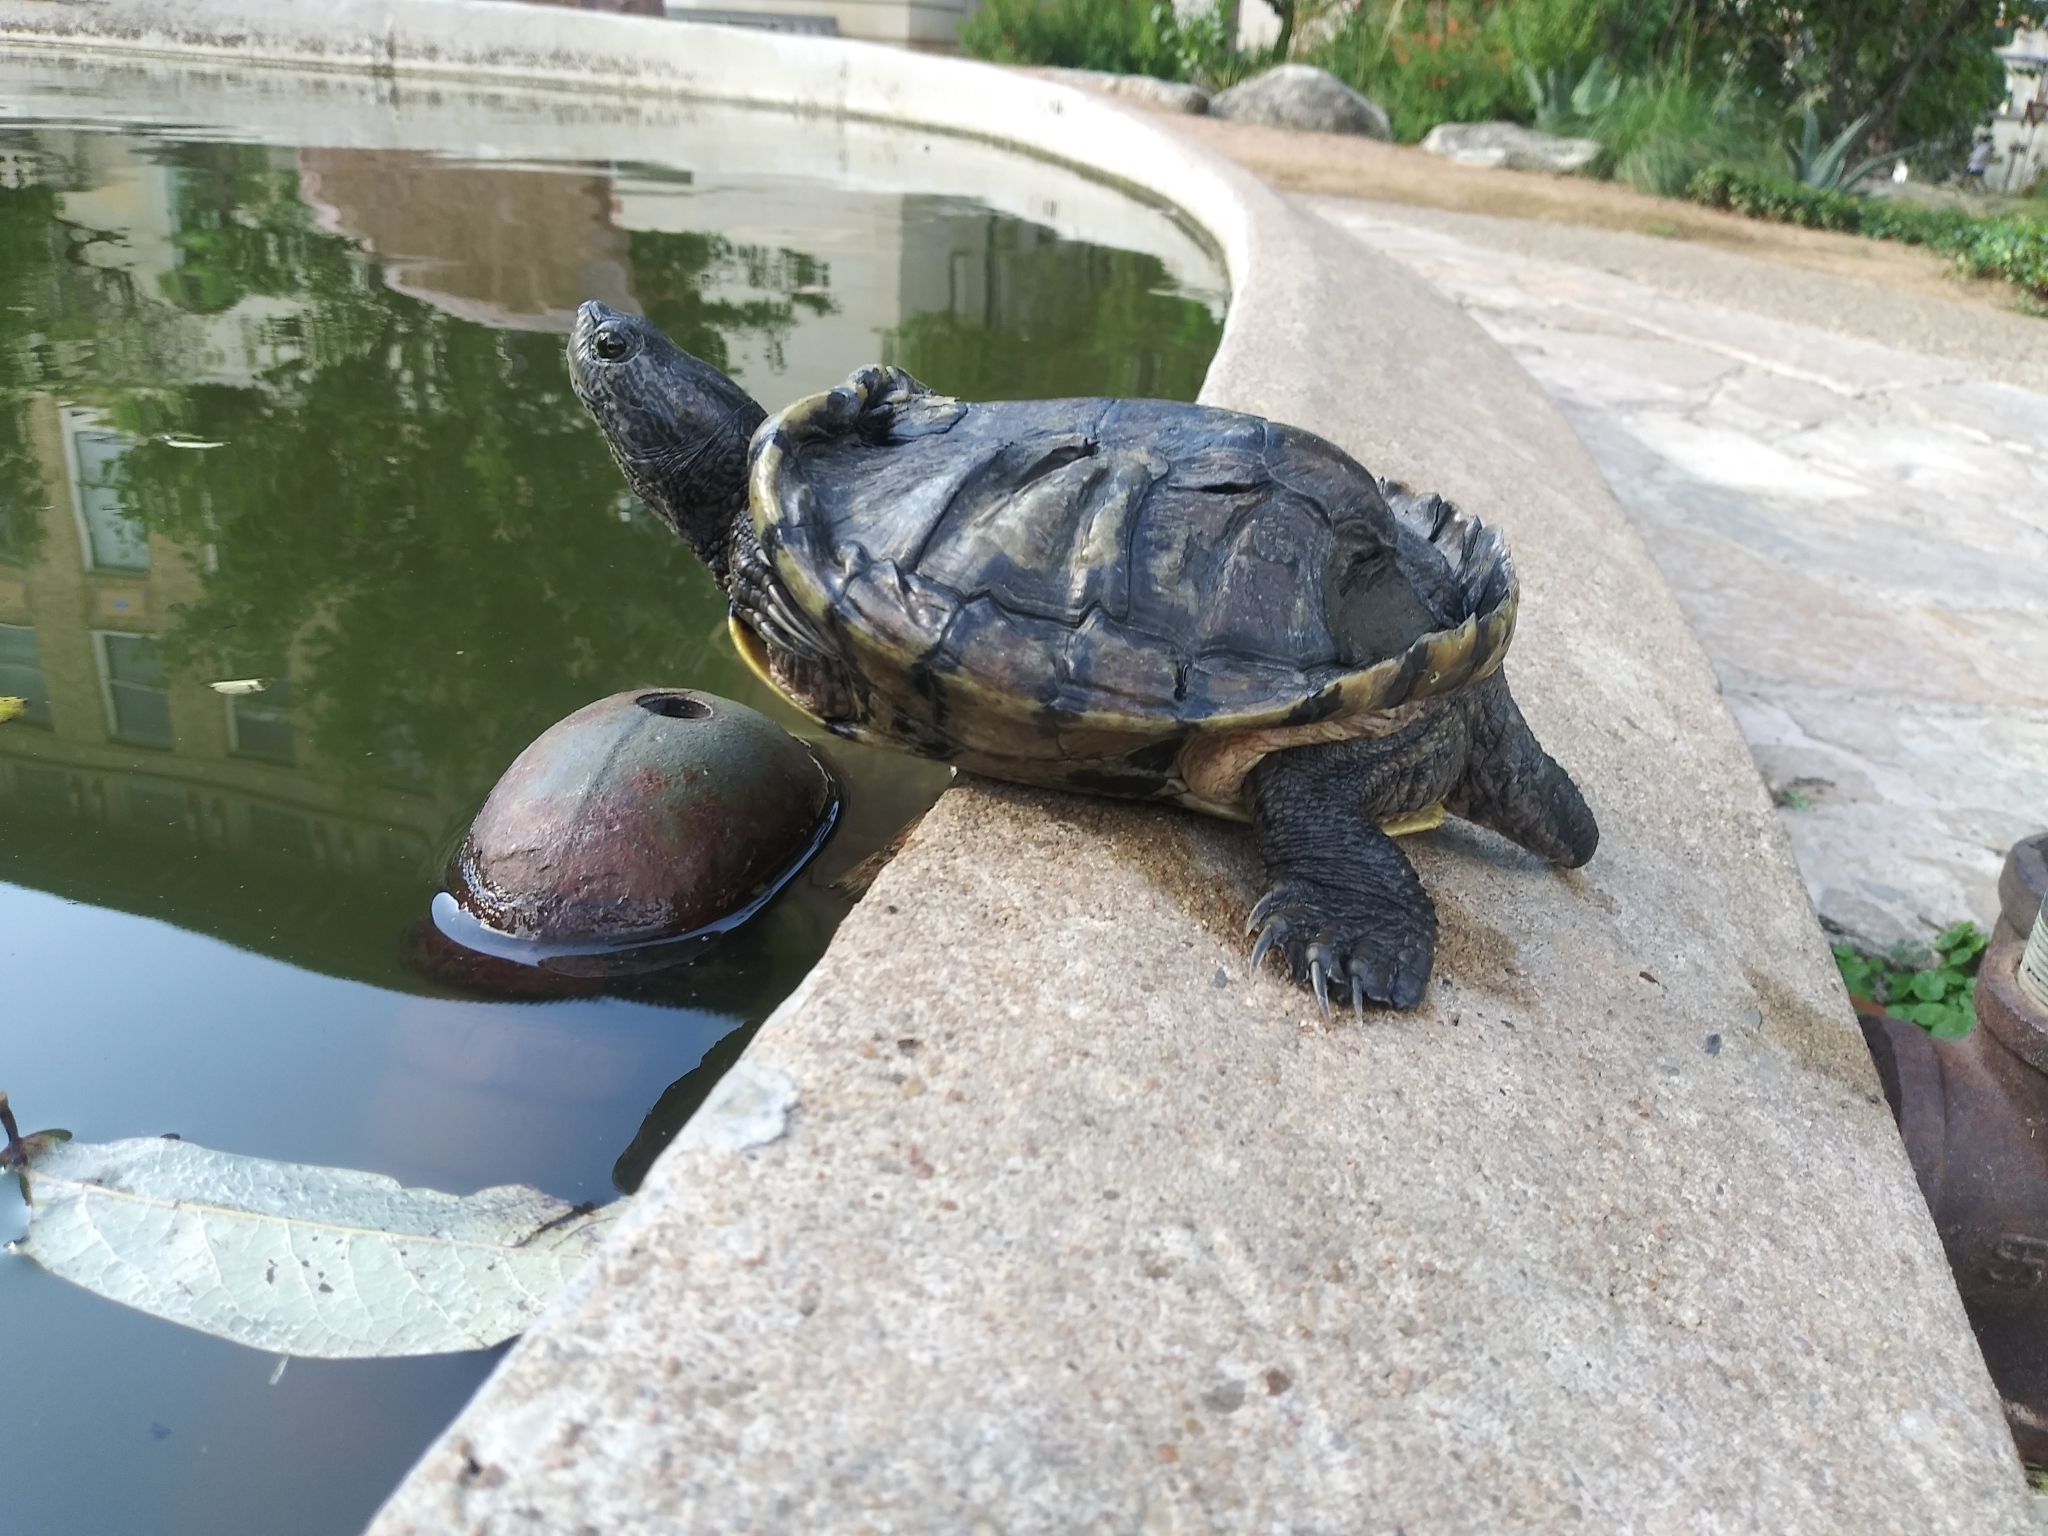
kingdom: Animalia
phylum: Chordata
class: Testudines
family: Emydidae
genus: Trachemys
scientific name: Trachemys scripta
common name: Slider
